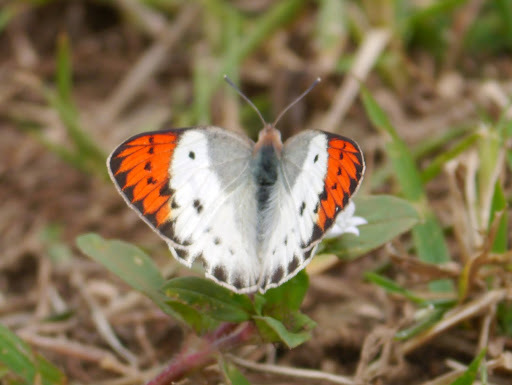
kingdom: Animalia
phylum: Arthropoda
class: Insecta
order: Lepidoptera
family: Pieridae
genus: Colotis
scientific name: Colotis danae
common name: Crimson tip
